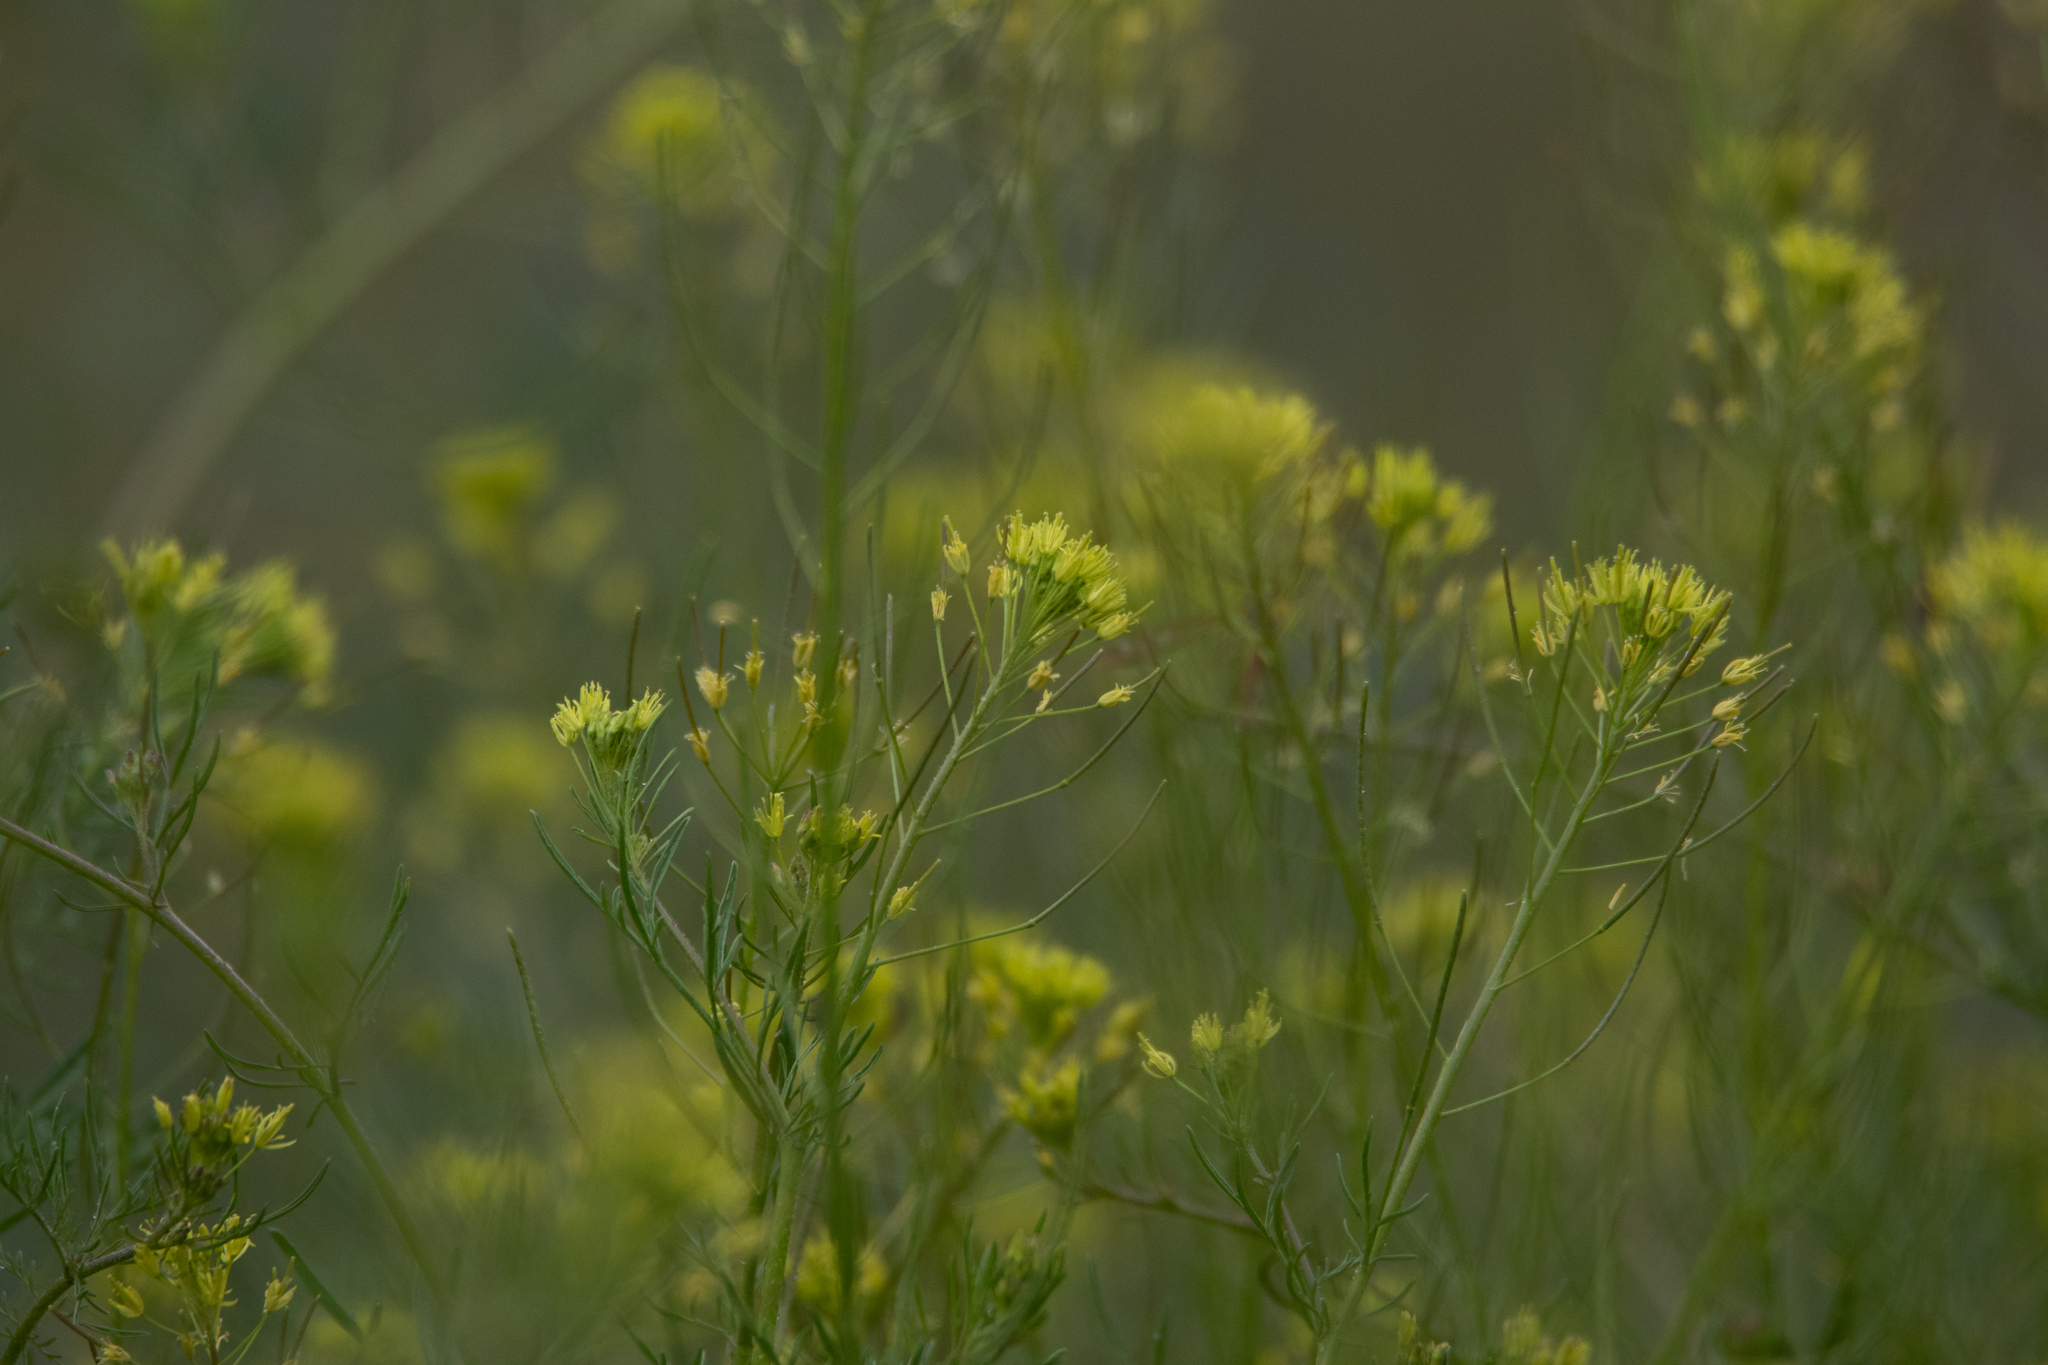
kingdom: Plantae
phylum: Tracheophyta
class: Magnoliopsida
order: Brassicales
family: Brassicaceae
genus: Descurainia
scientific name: Descurainia sophia
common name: Flixweed
